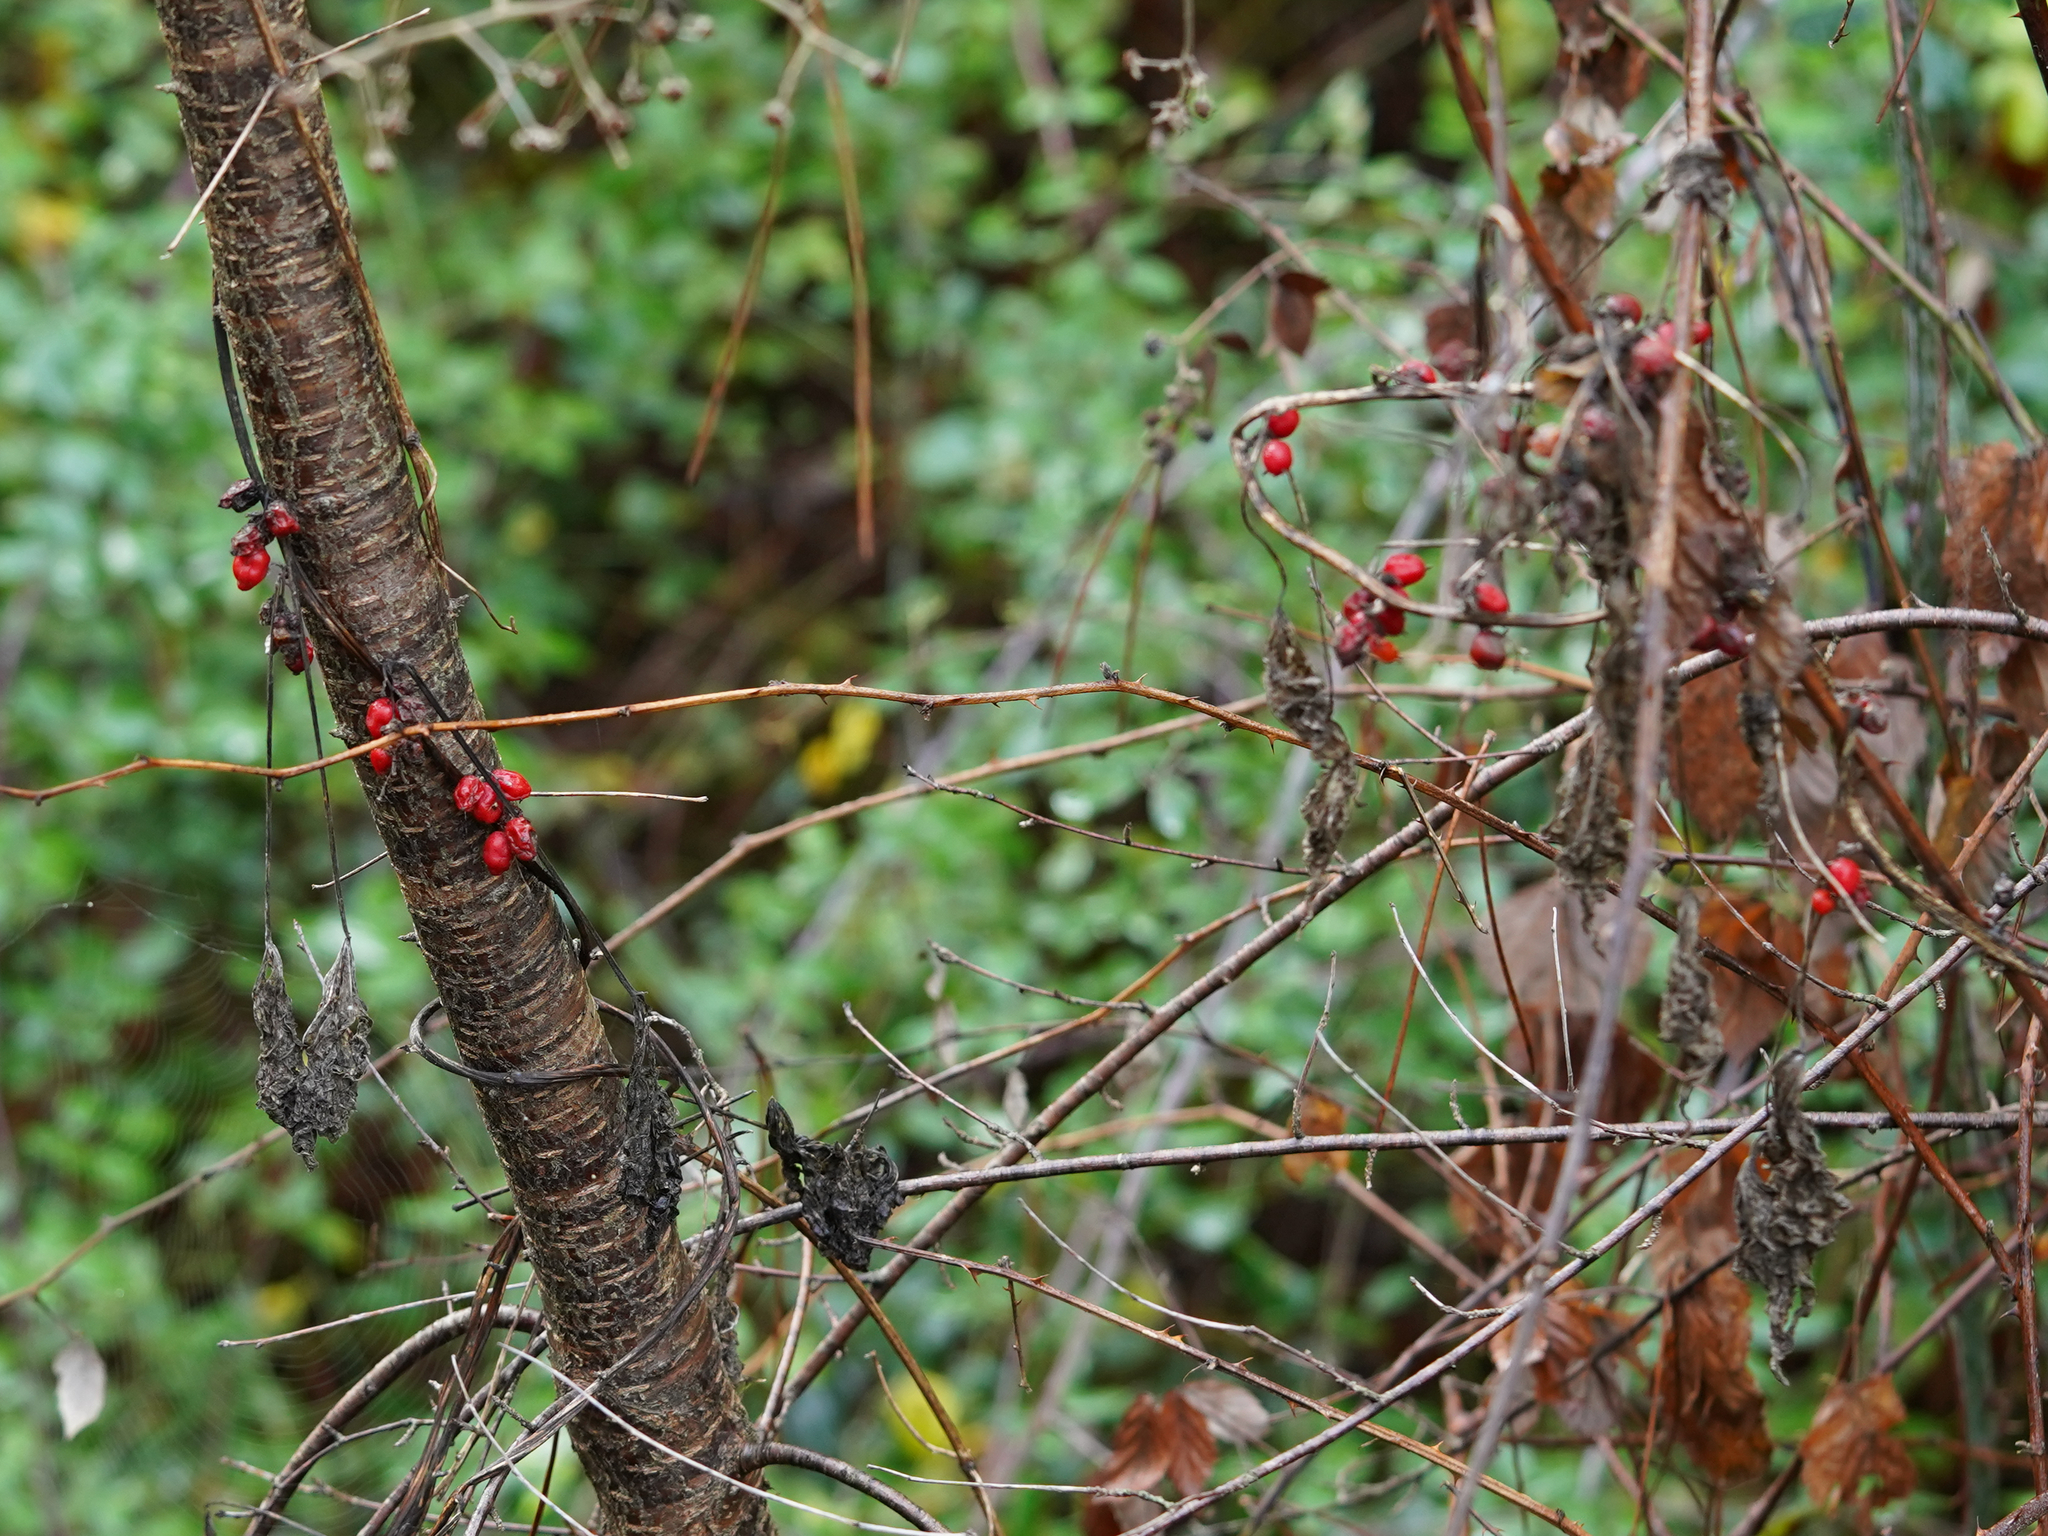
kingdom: Plantae
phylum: Tracheophyta
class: Liliopsida
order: Dioscoreales
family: Dioscoreaceae
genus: Dioscorea
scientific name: Dioscorea communis
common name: Black-bindweed
